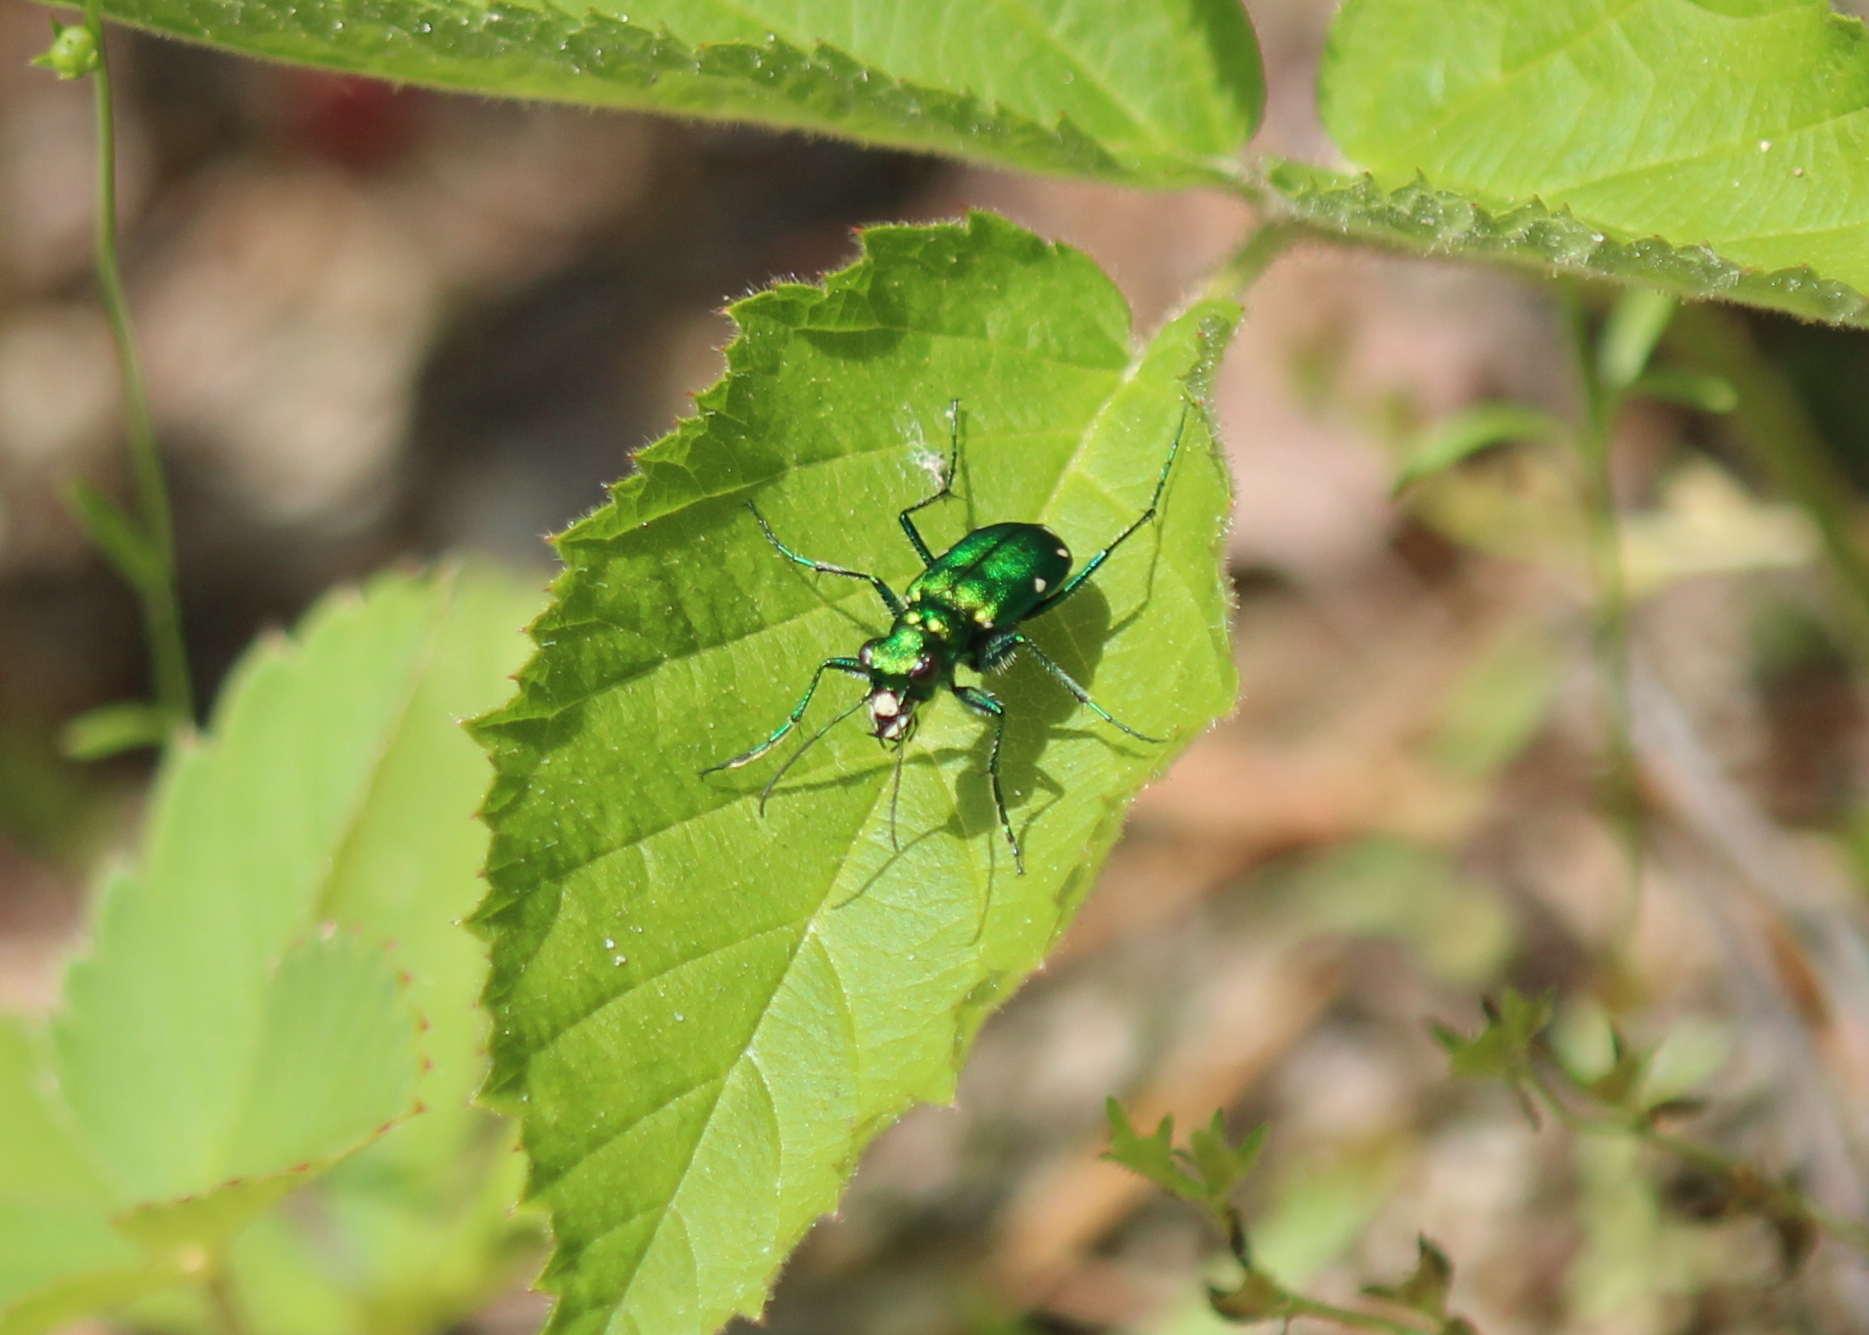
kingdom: Animalia
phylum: Arthropoda
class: Insecta
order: Coleoptera
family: Carabidae
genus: Cicindela
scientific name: Cicindela sexguttata
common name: Six-spotted tiger beetle
